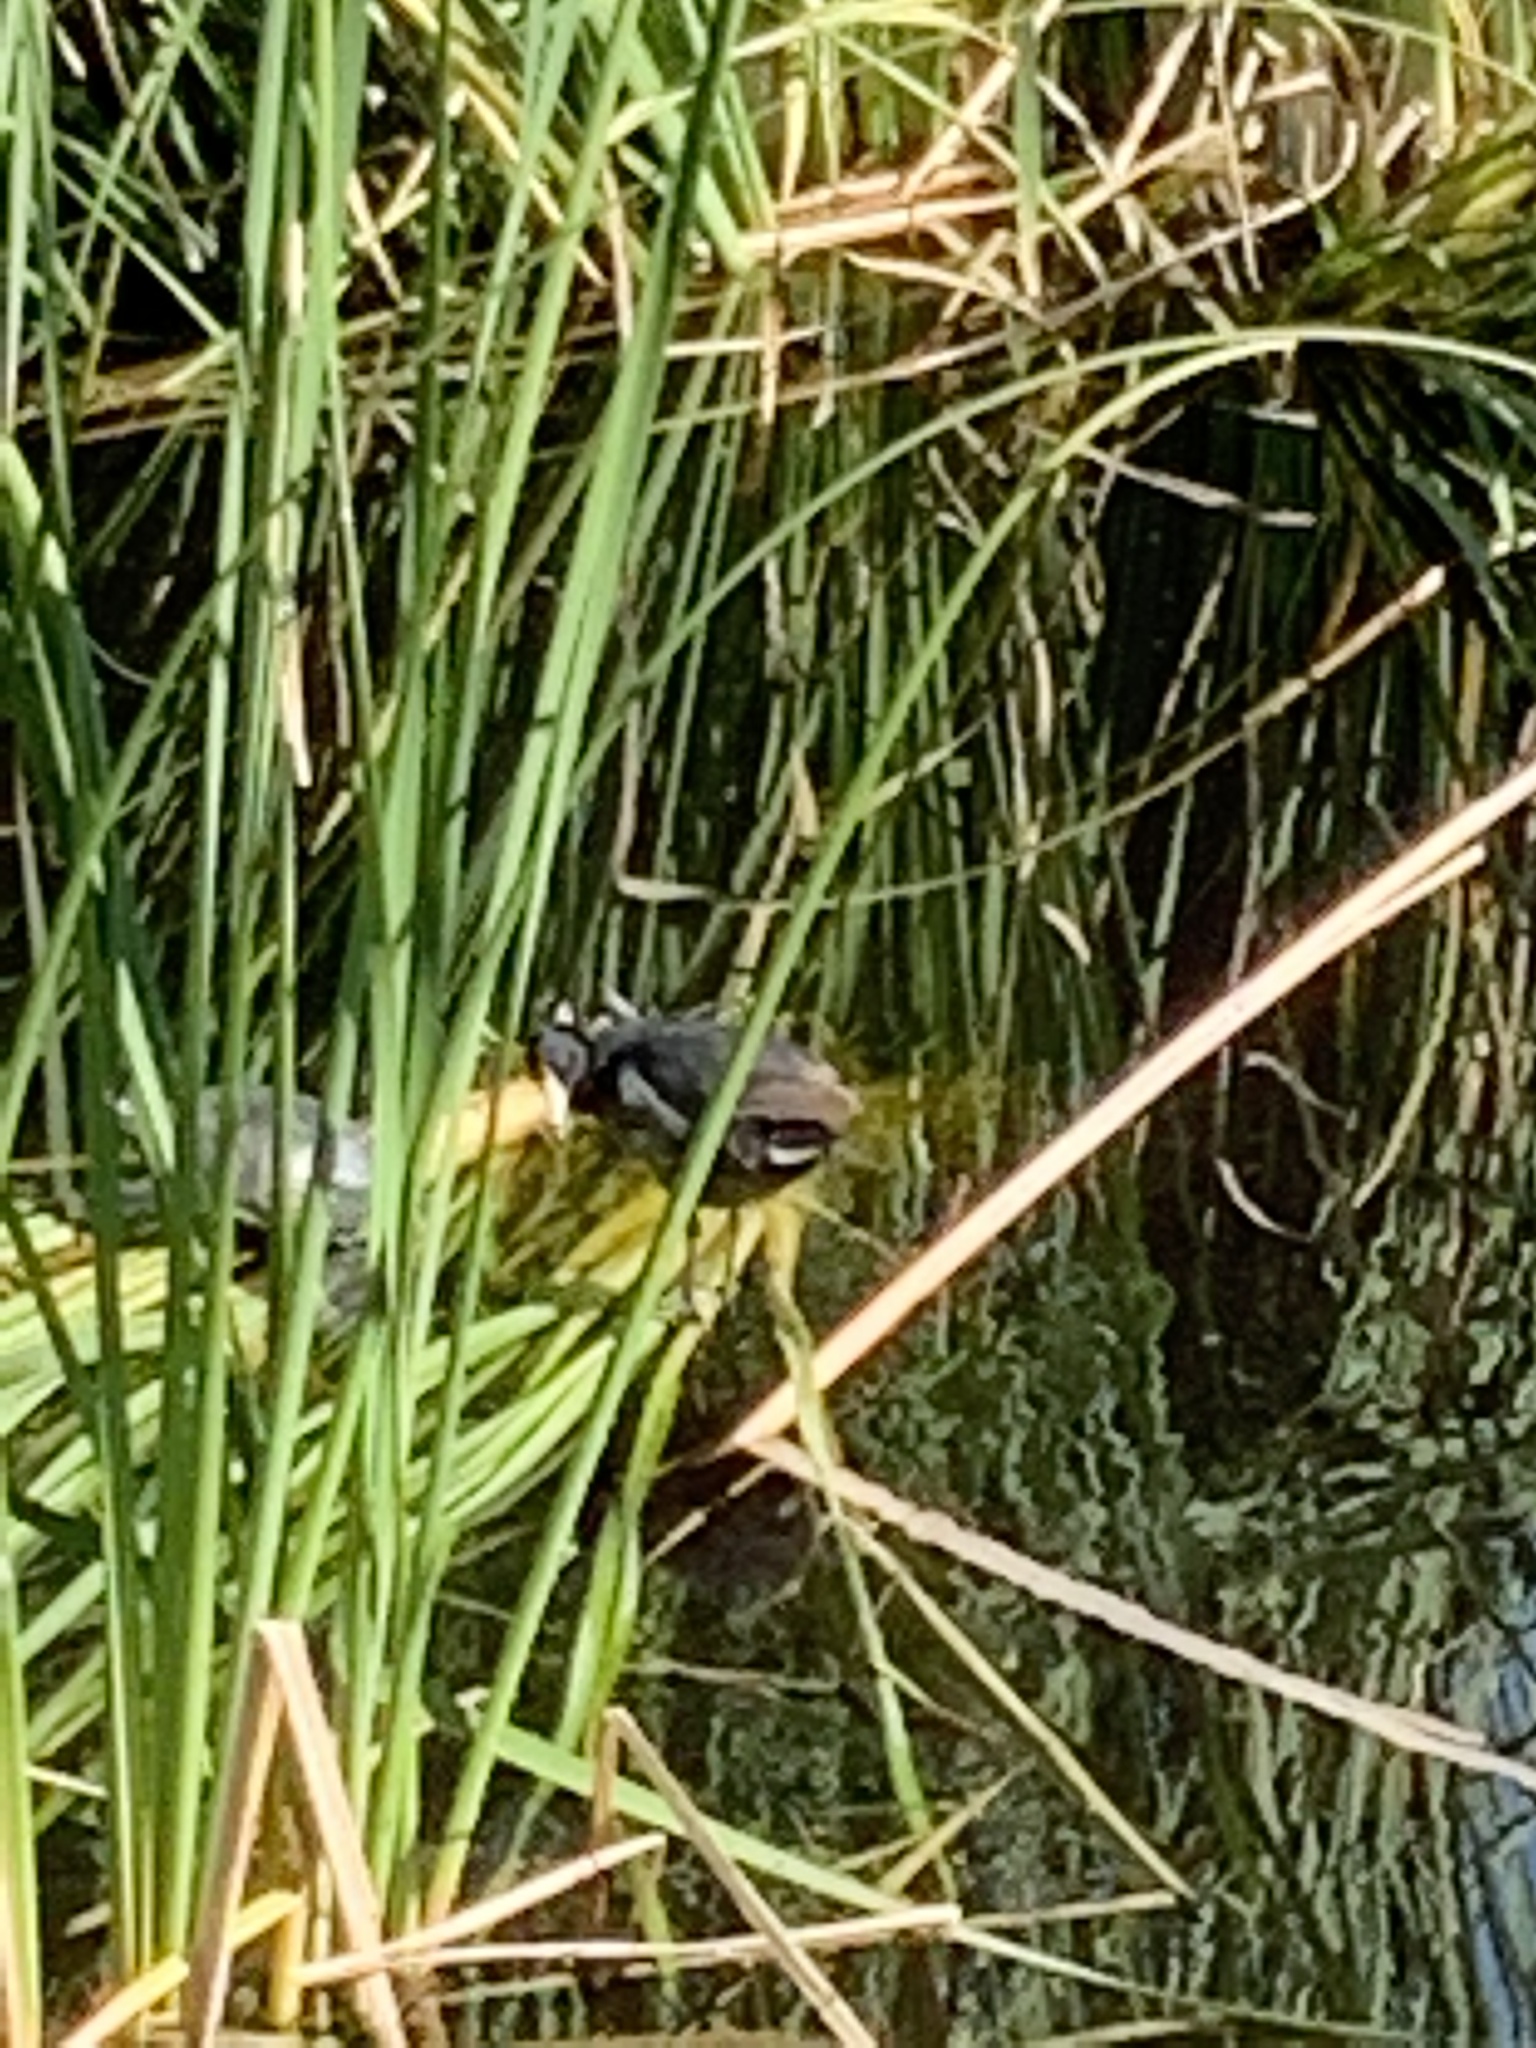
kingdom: Animalia
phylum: Chordata
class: Aves
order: Gruiformes
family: Rallidae
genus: Fulica
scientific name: Fulica americana
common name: American coot
